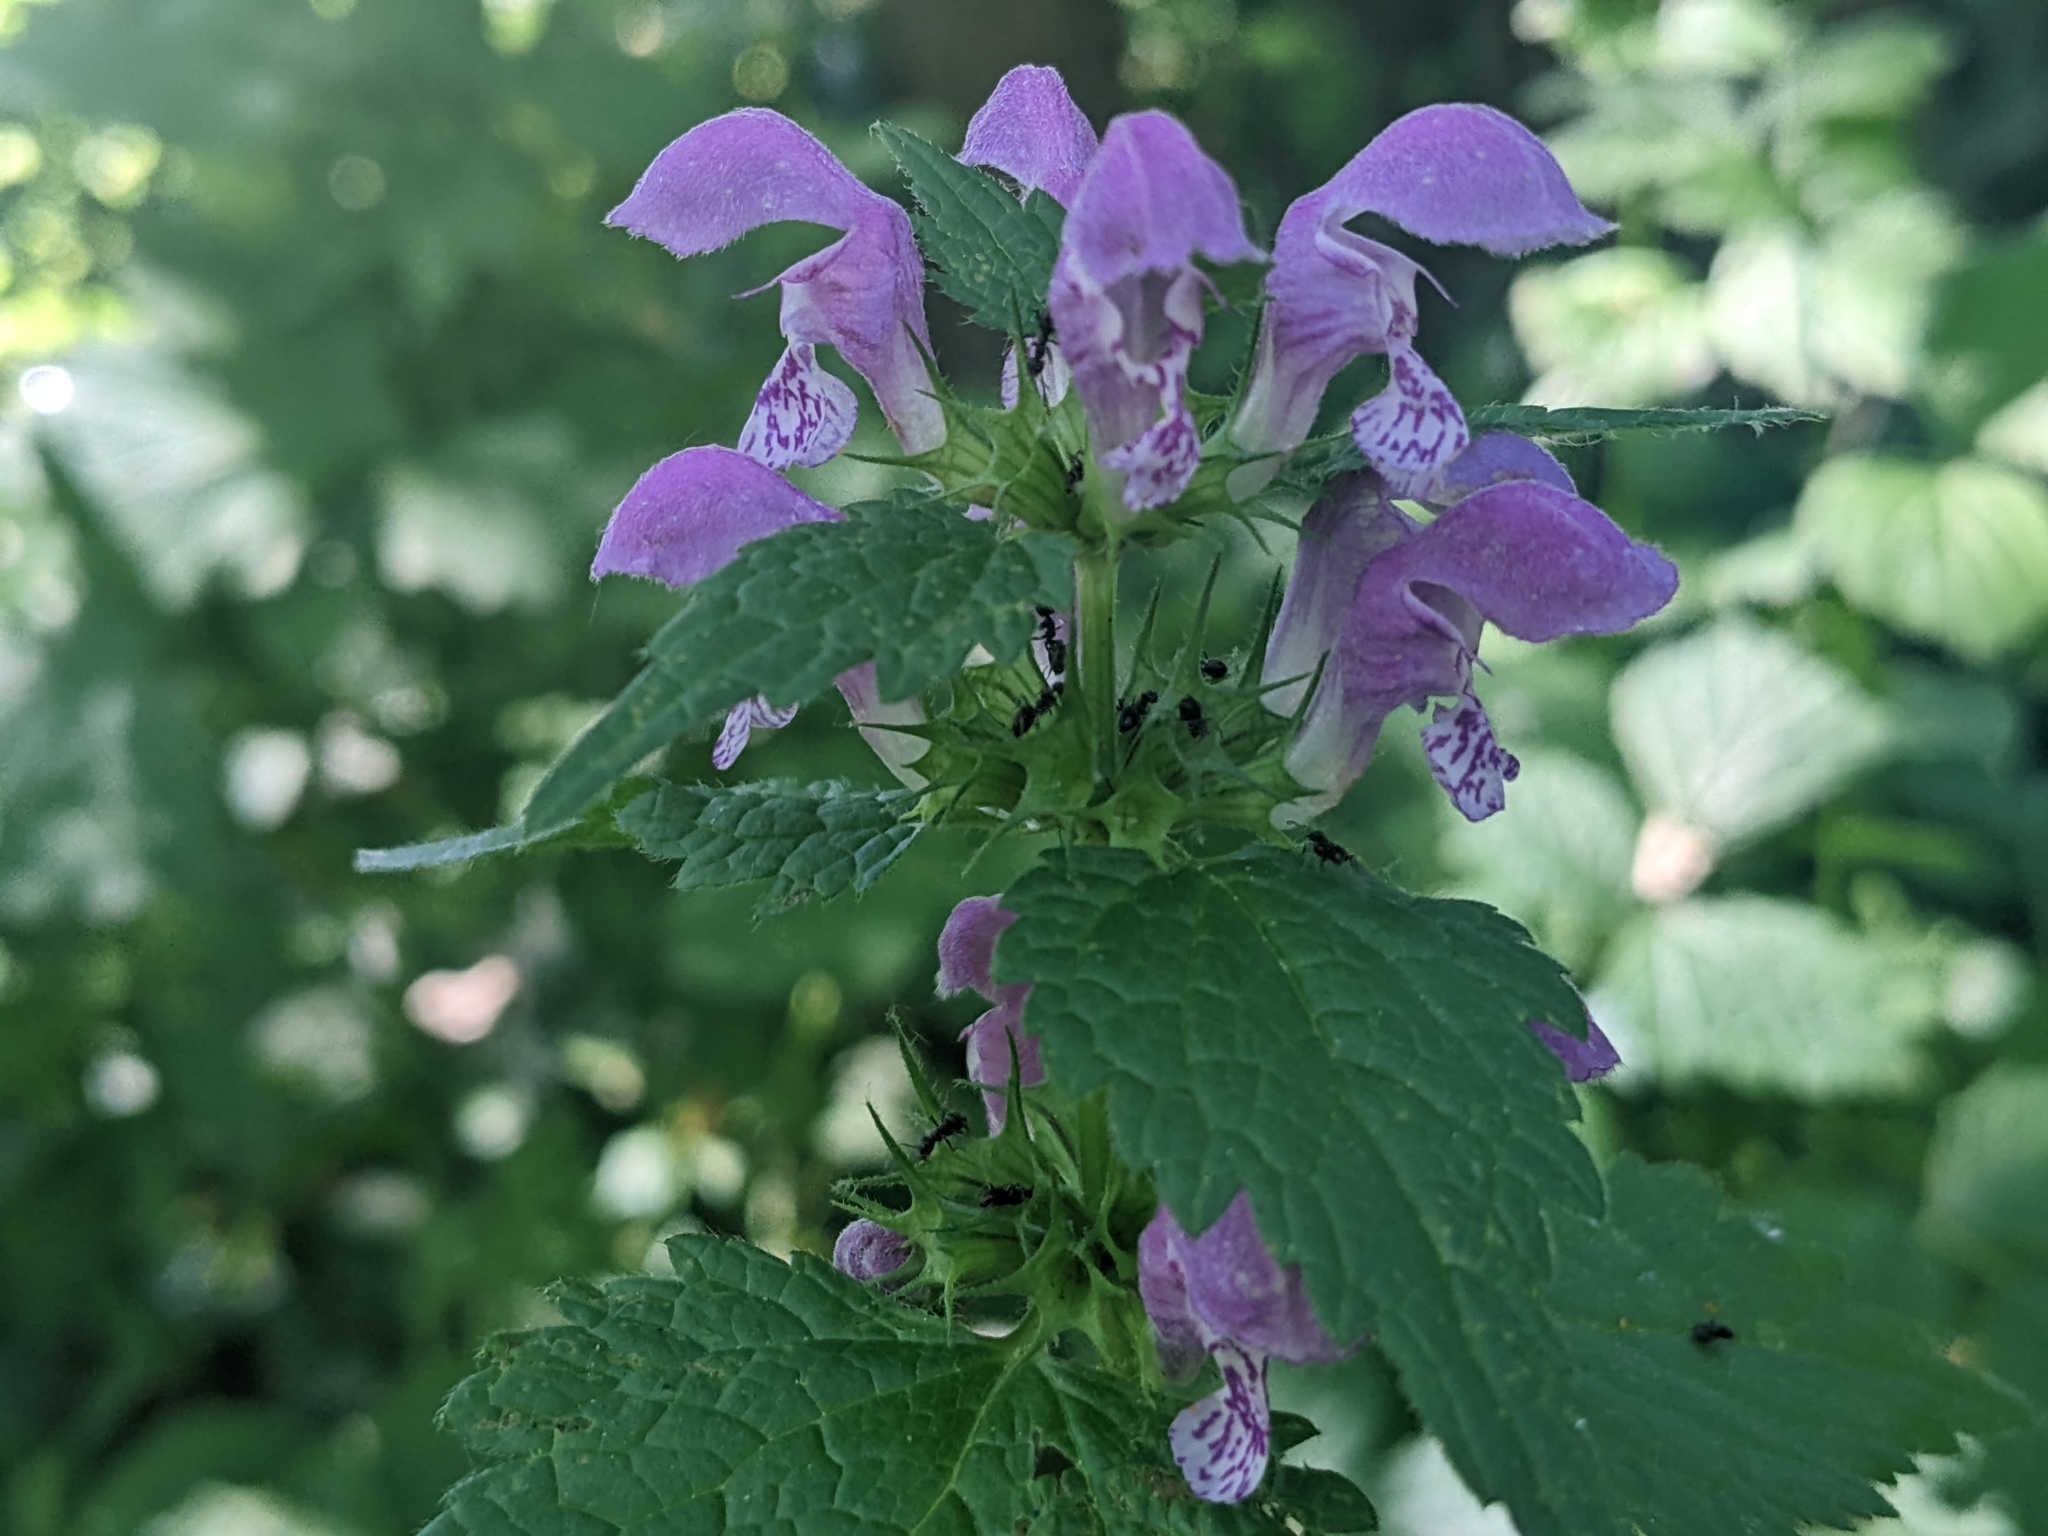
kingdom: Plantae
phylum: Tracheophyta
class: Magnoliopsida
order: Lamiales
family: Lamiaceae
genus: Lamium
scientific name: Lamium maculatum
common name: Spotted dead-nettle
